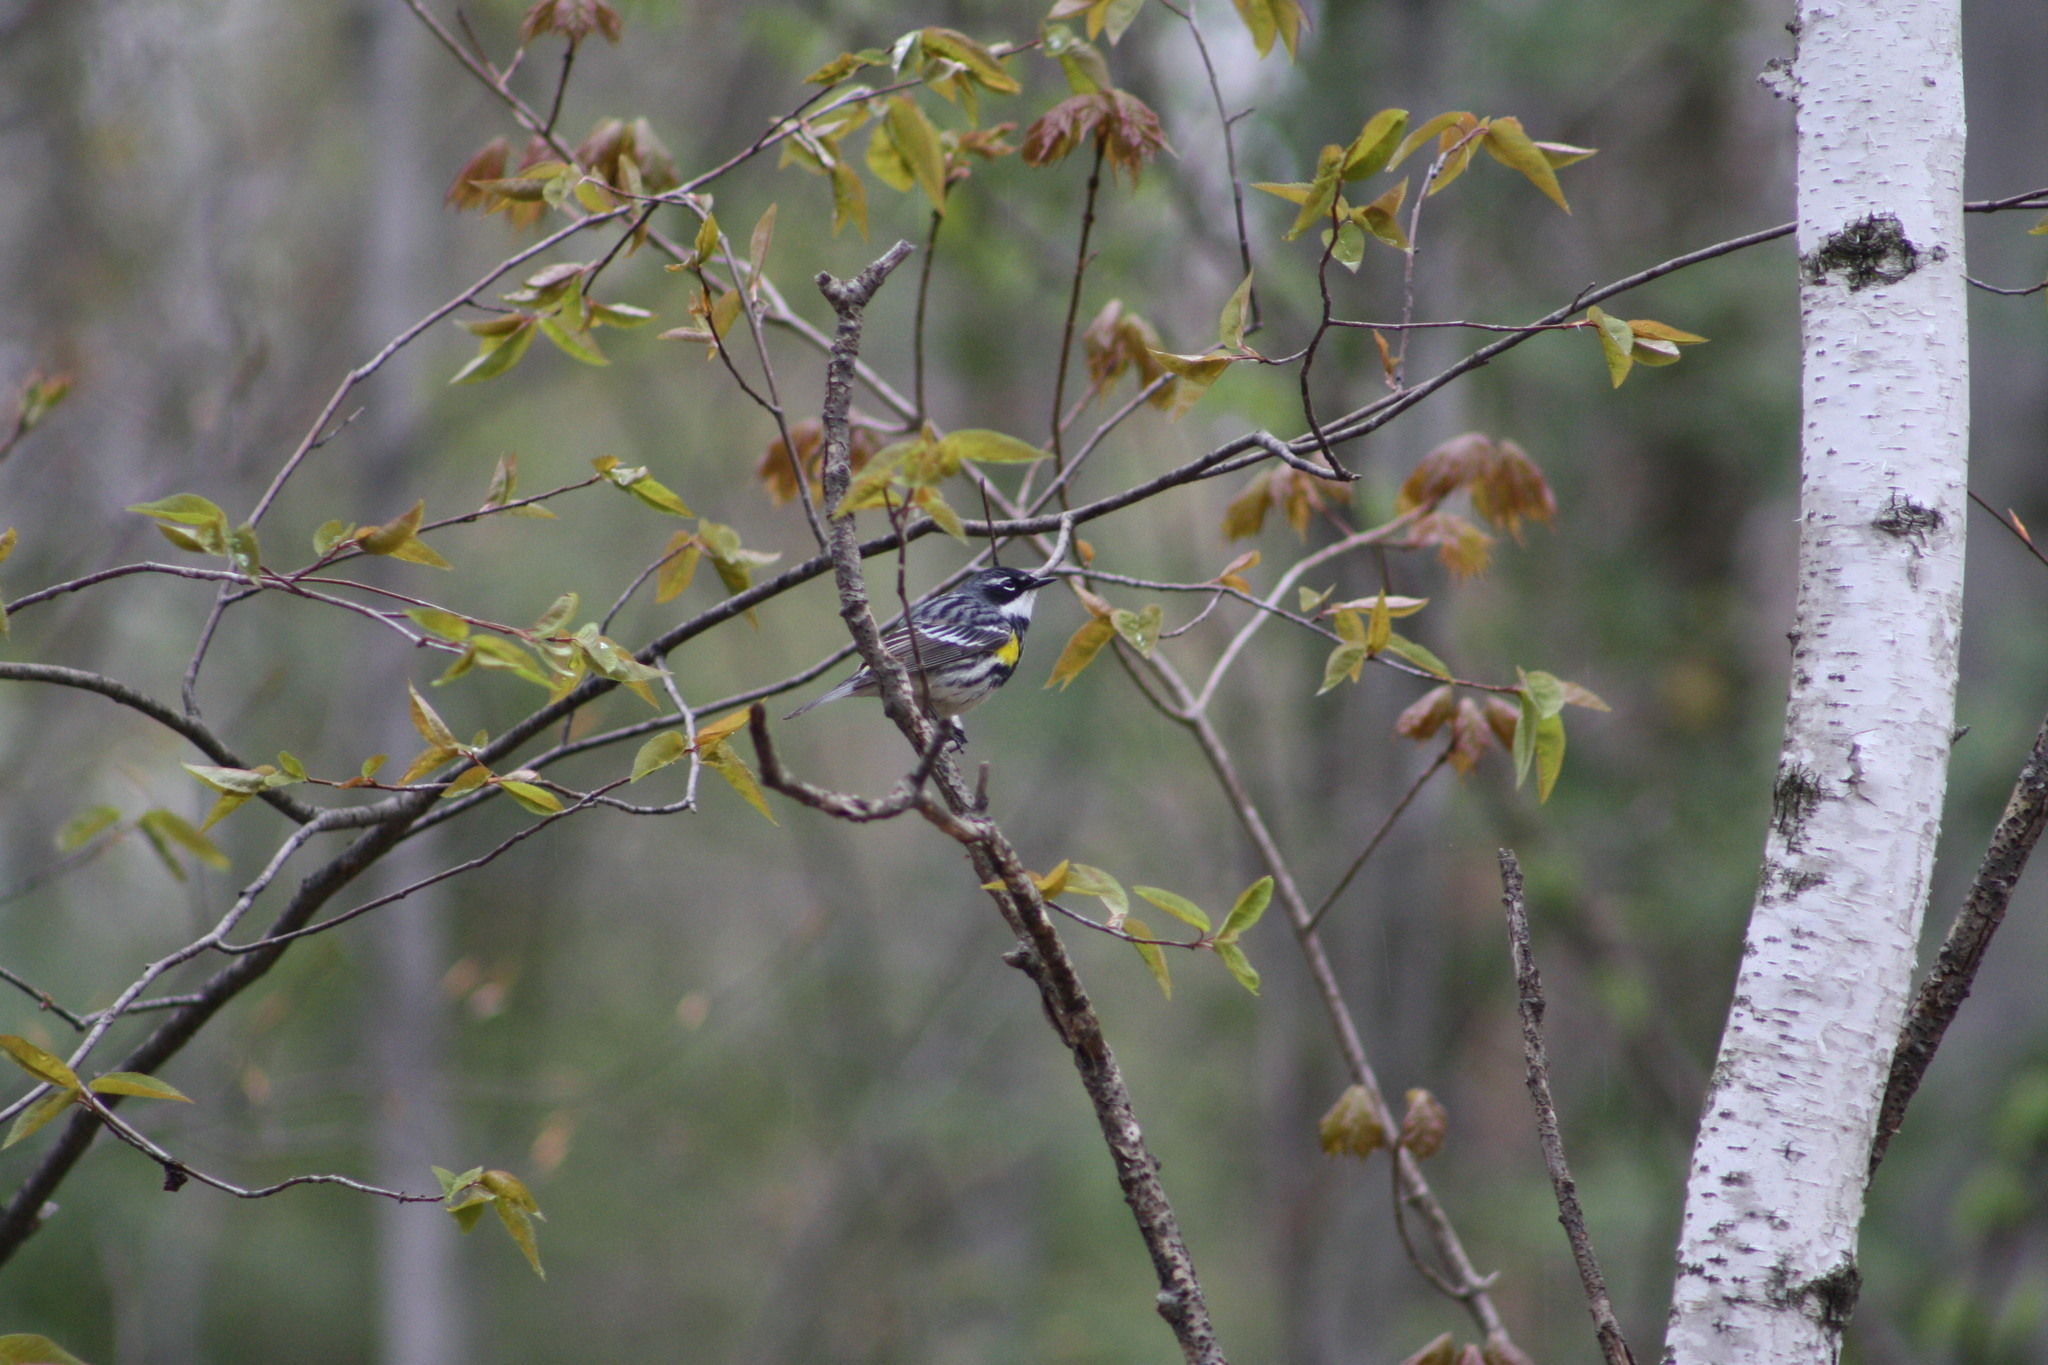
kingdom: Animalia
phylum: Chordata
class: Aves
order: Passeriformes
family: Parulidae
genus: Setophaga
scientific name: Setophaga coronata
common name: Myrtle warbler
